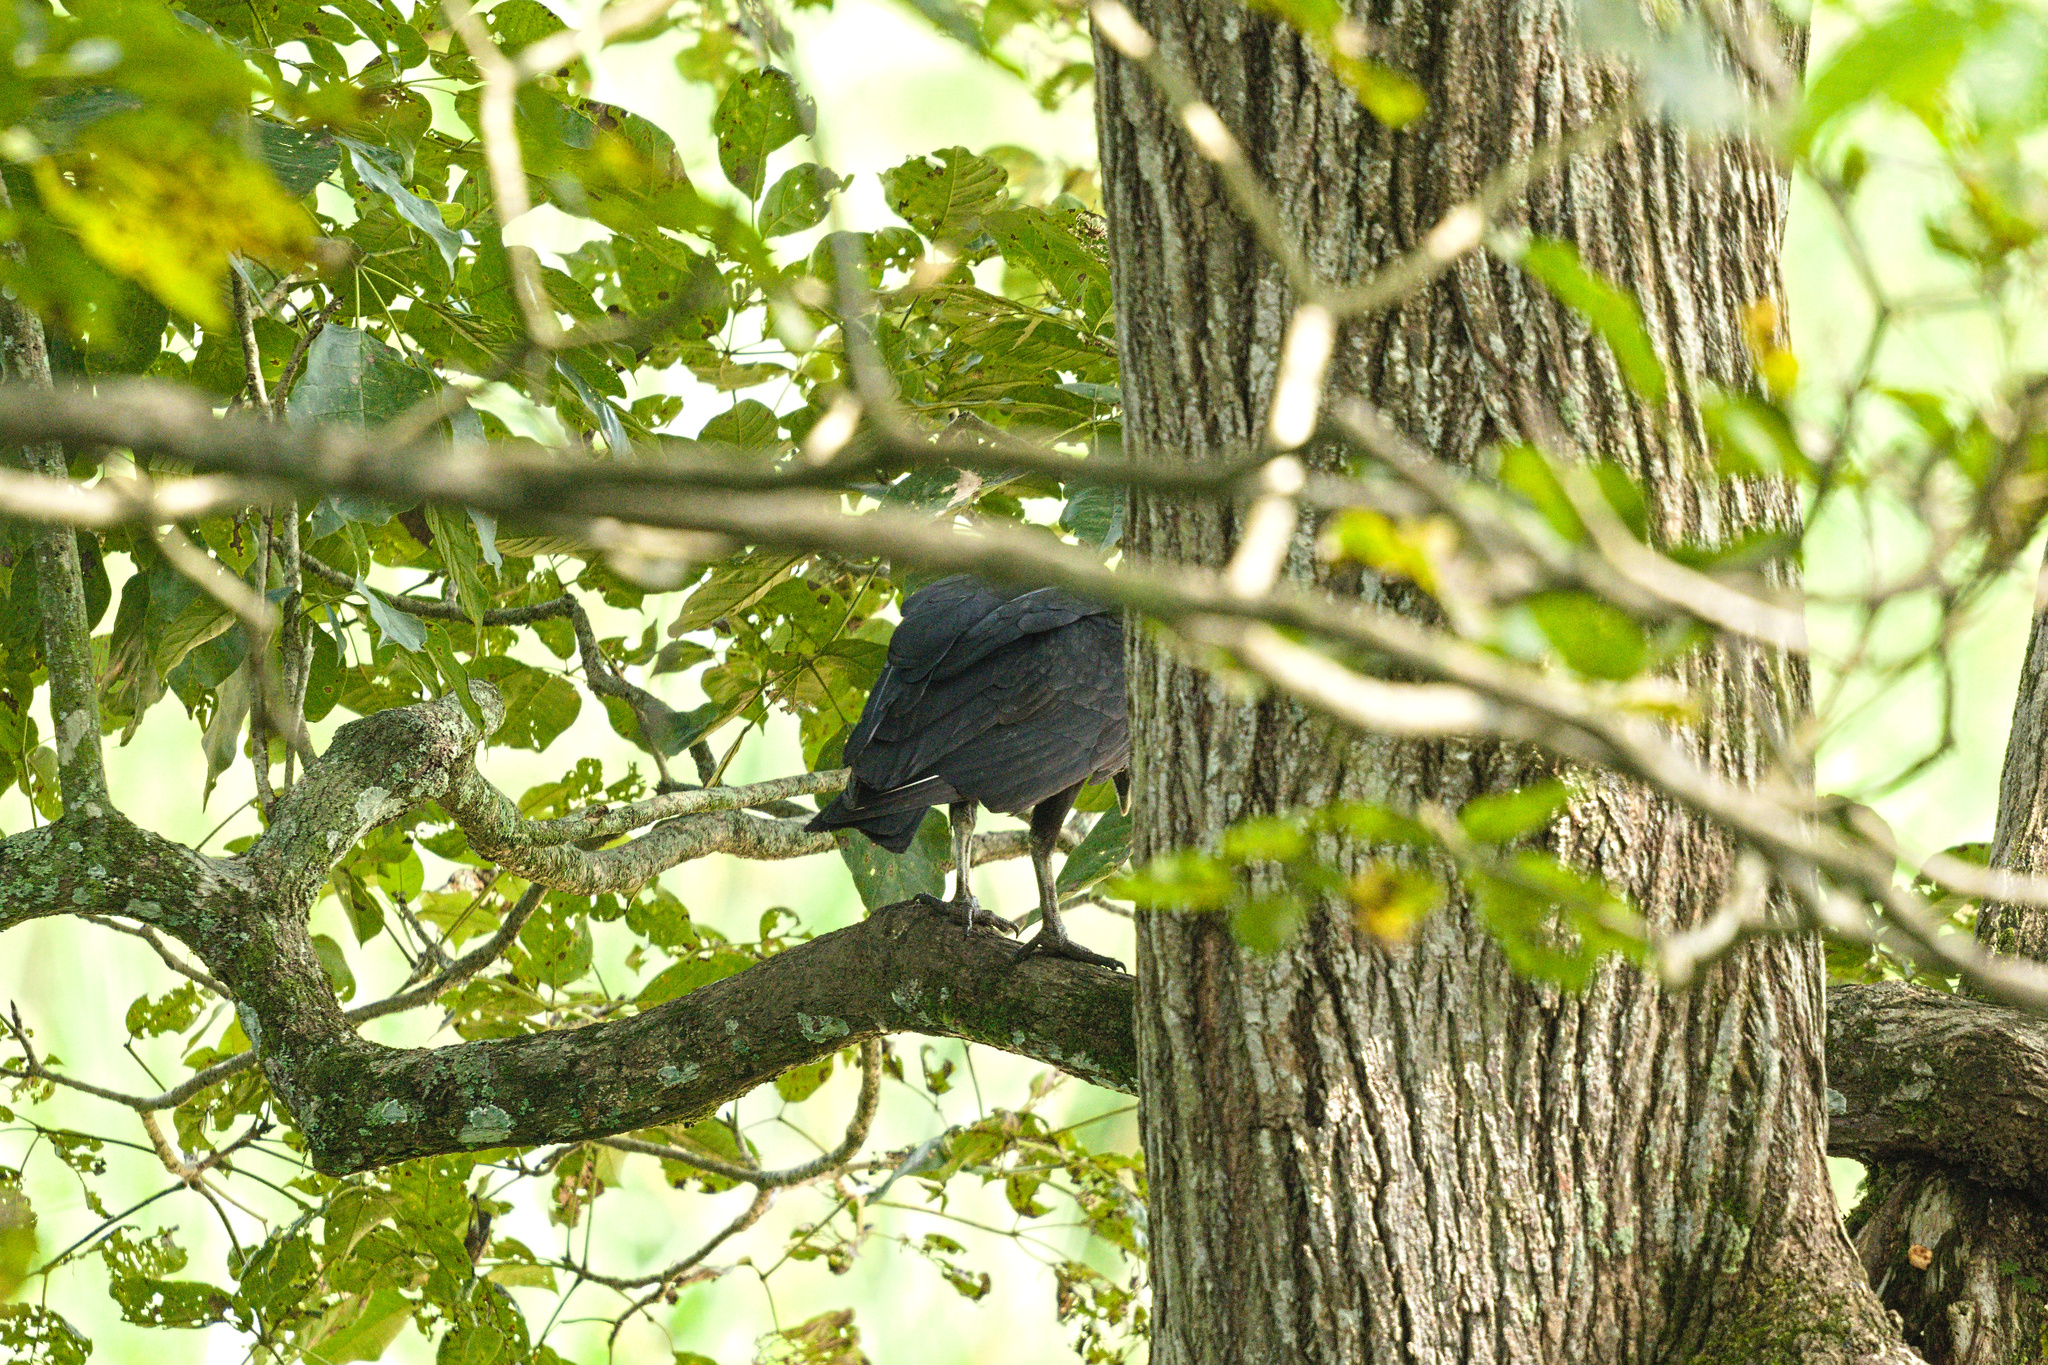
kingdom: Animalia
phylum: Chordata
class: Aves
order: Accipitriformes
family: Cathartidae
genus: Coragyps
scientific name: Coragyps atratus
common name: Black vulture
